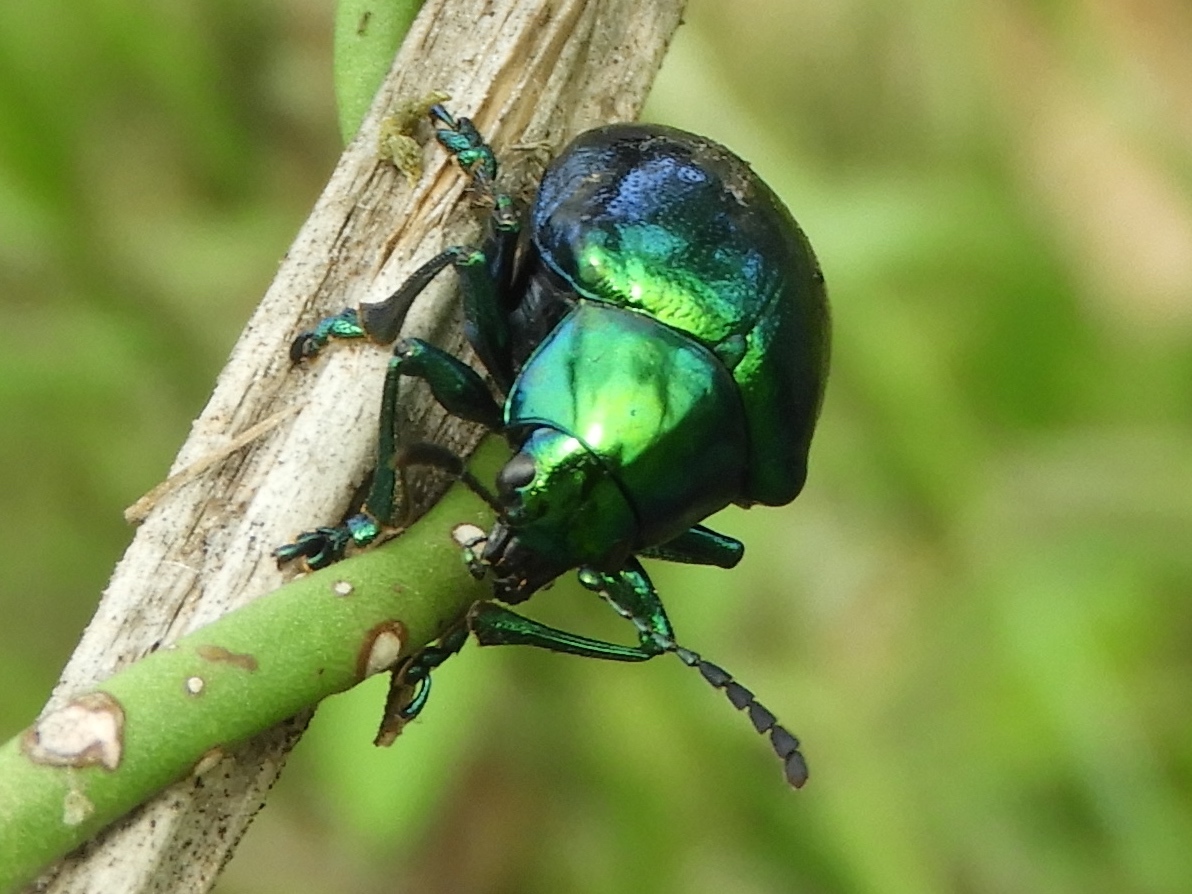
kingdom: Animalia
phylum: Arthropoda
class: Insecta
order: Coleoptera
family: Chrysomelidae
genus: Eumolpus
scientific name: Eumolpus robustus
